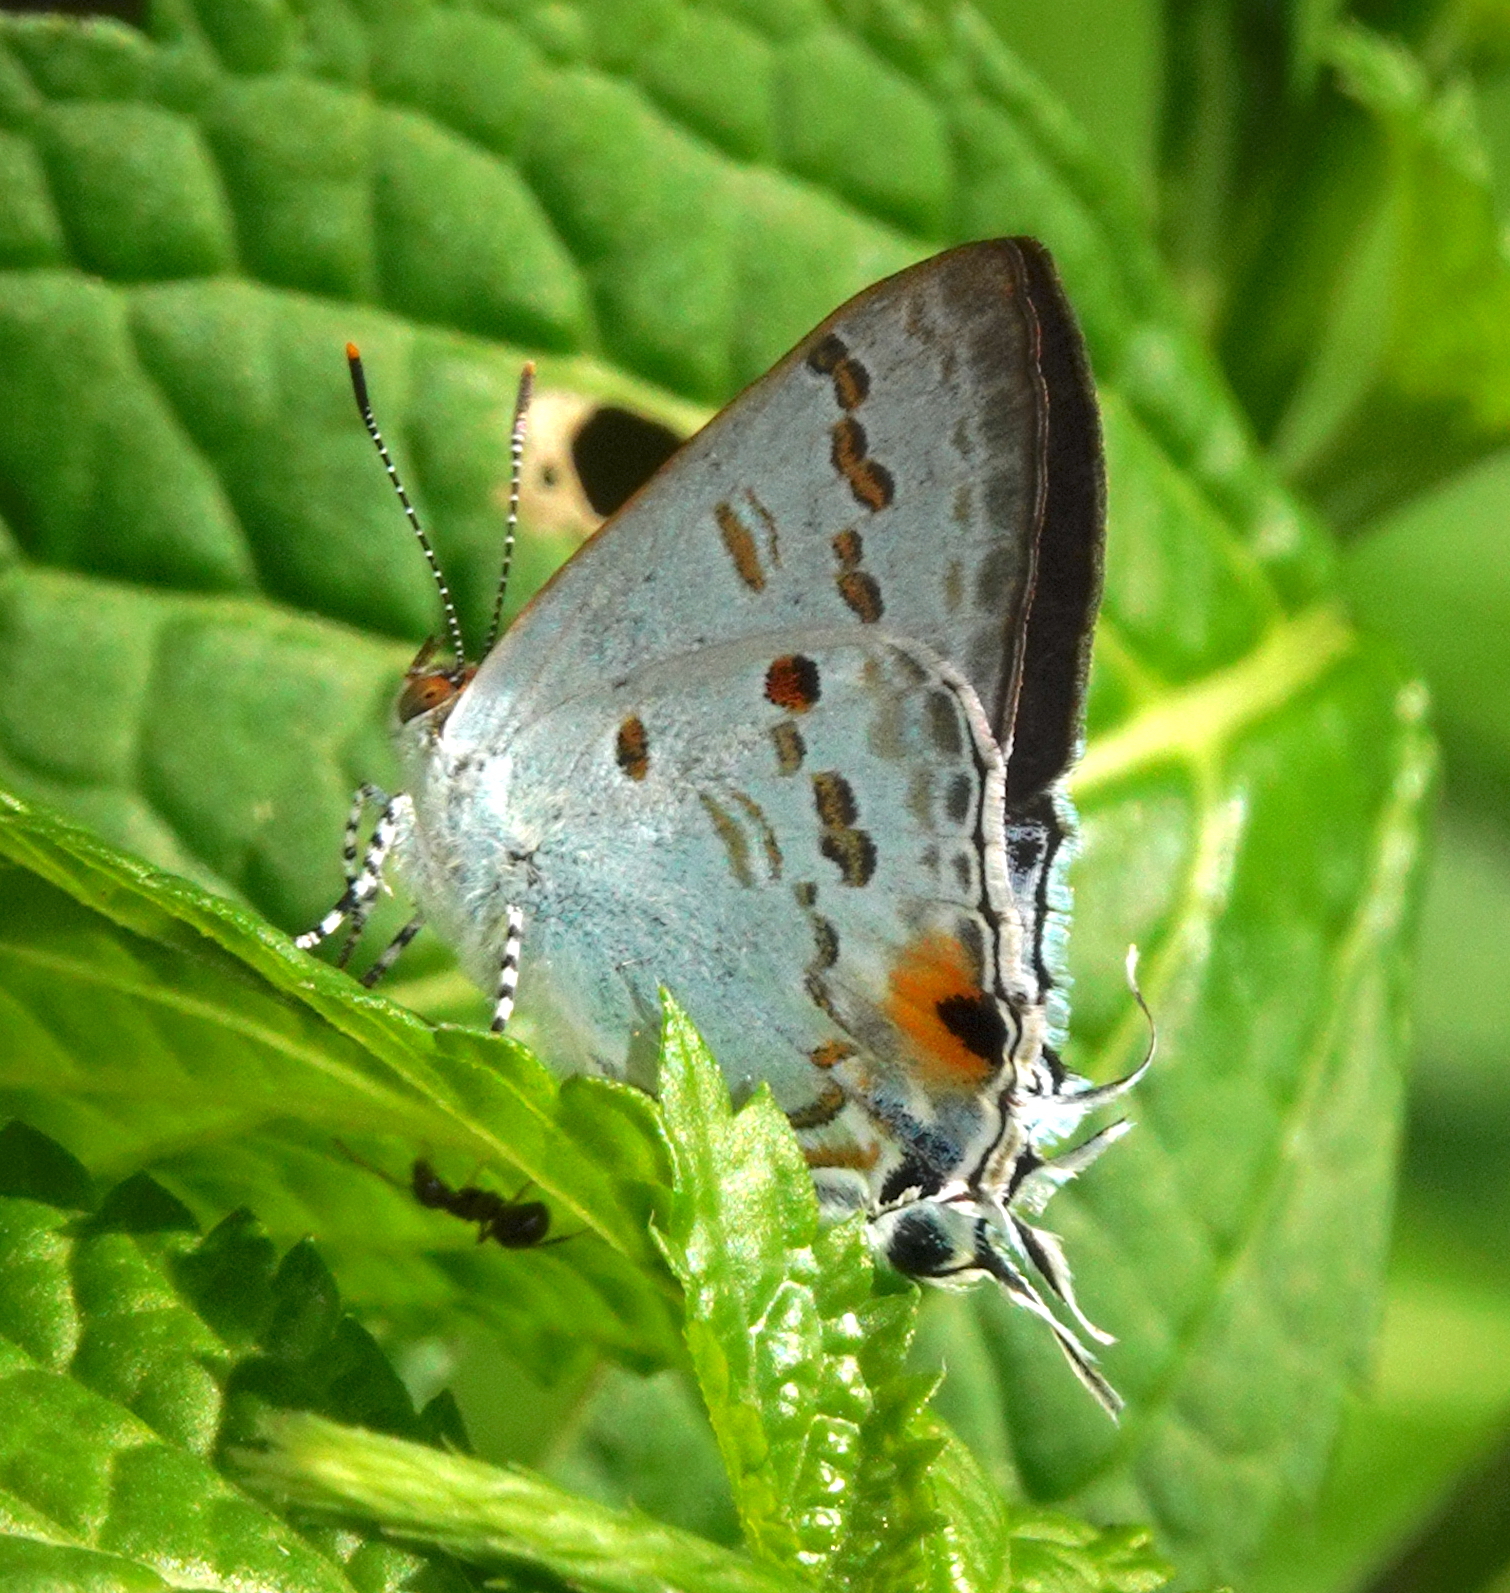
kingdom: Animalia
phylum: Arthropoda
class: Insecta
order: Lepidoptera
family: Lycaenidae
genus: Hypolycaena
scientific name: Hypolycaena sipylus
